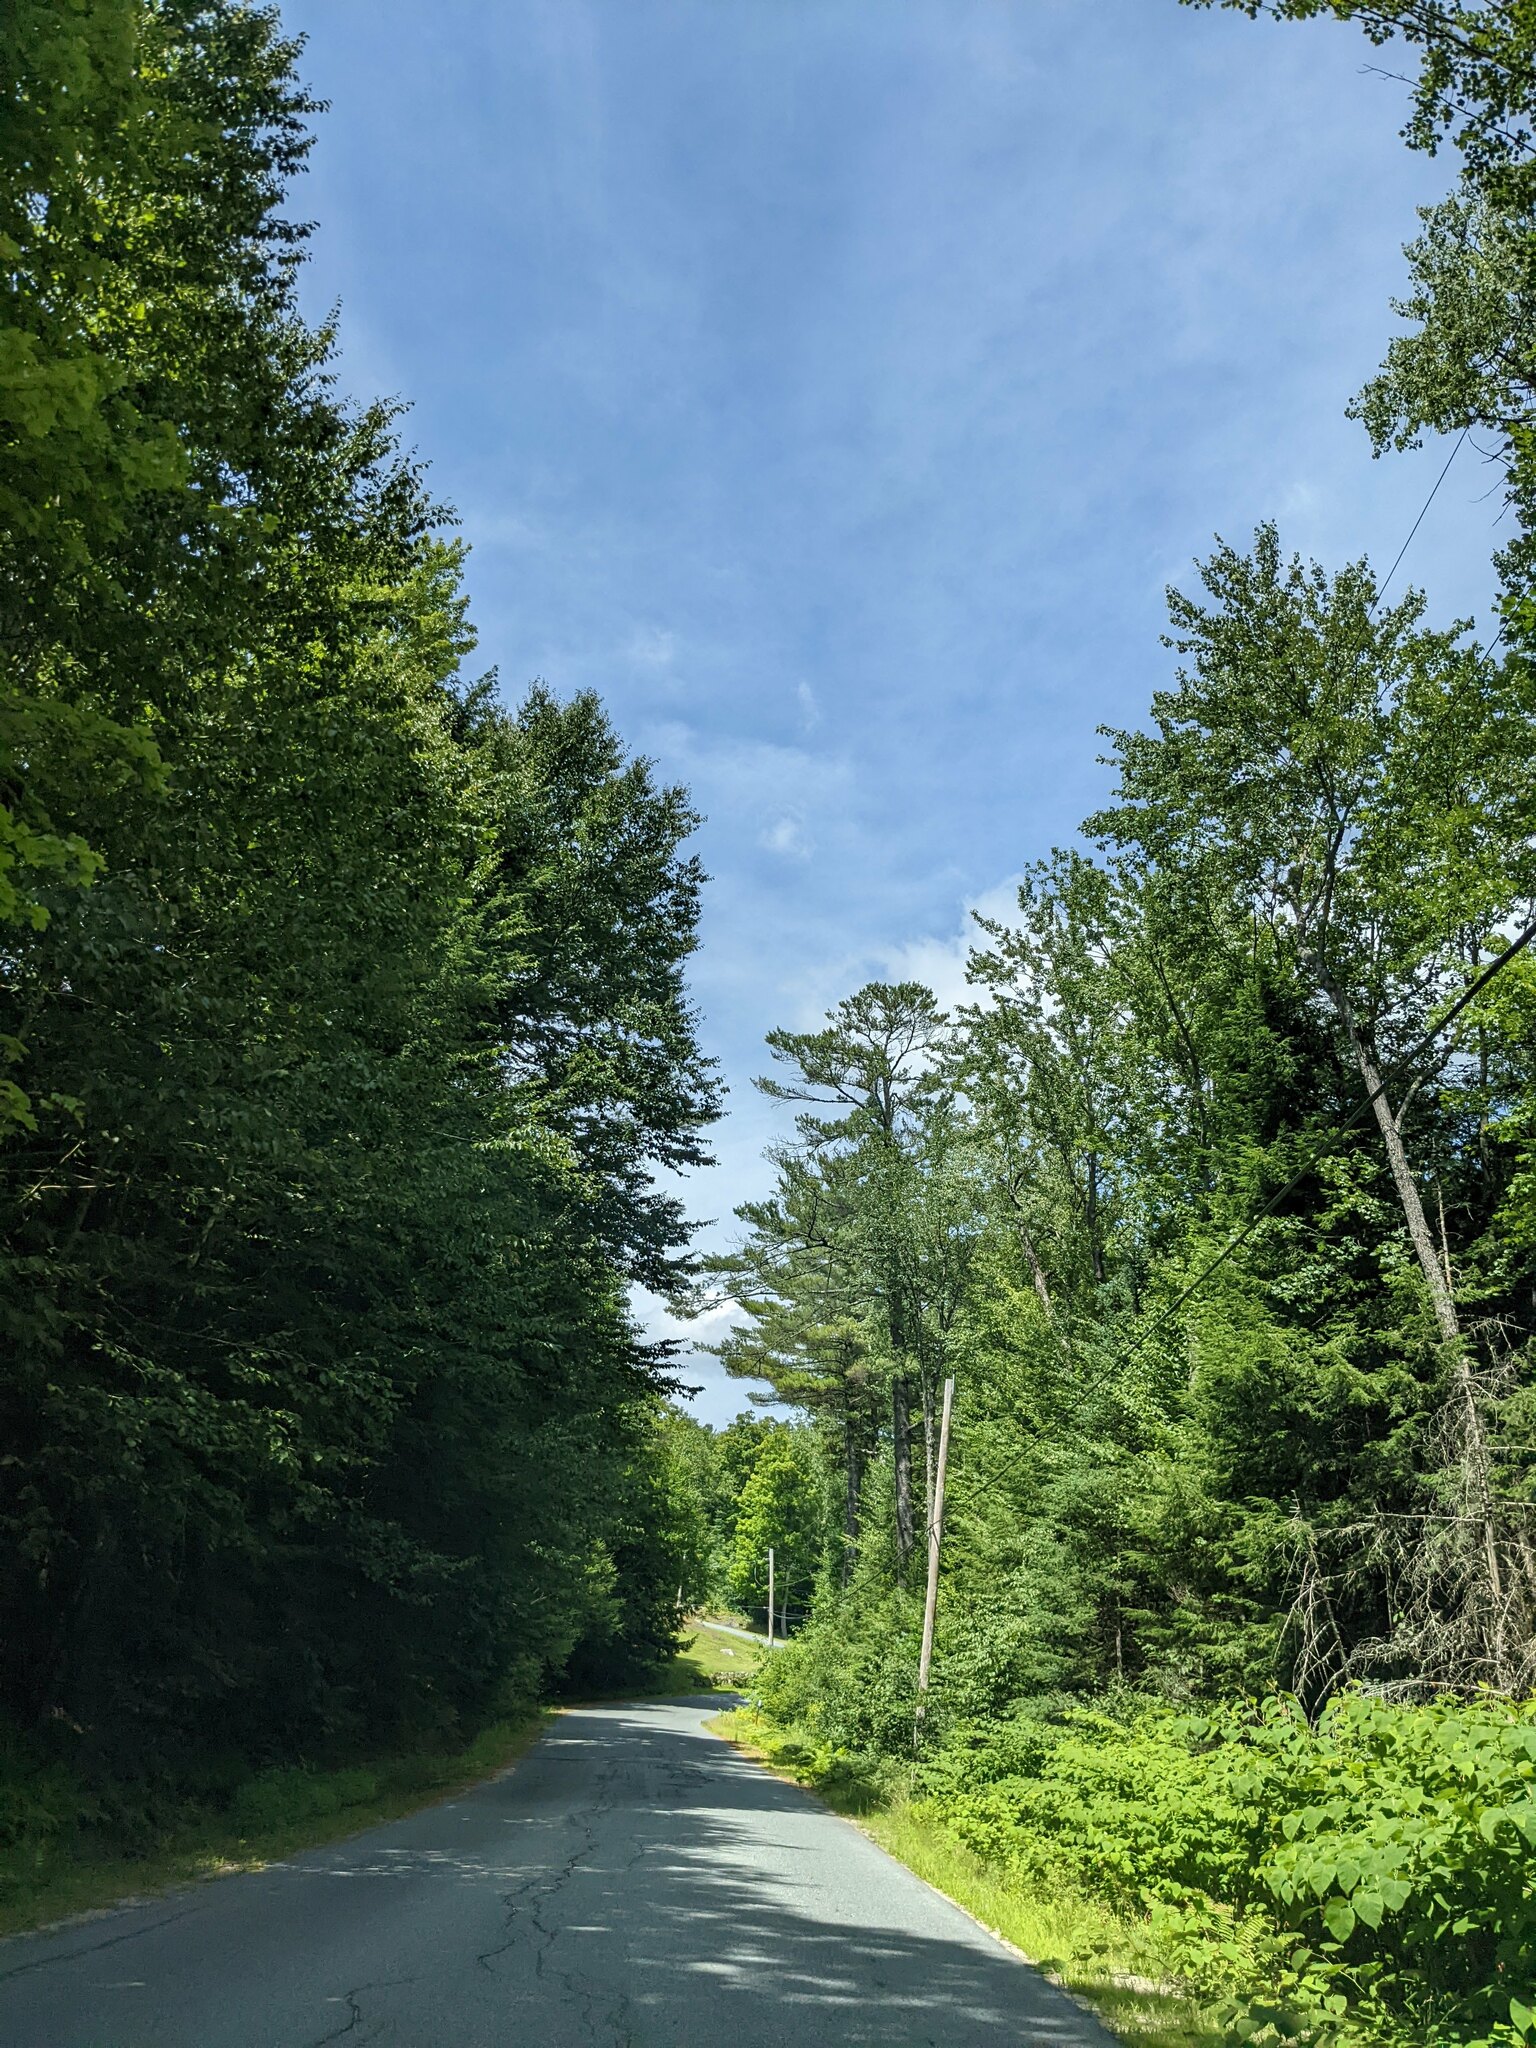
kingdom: Plantae
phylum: Tracheophyta
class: Pinopsida
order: Pinales
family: Pinaceae
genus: Pinus
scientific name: Pinus strobus
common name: Weymouth pine
